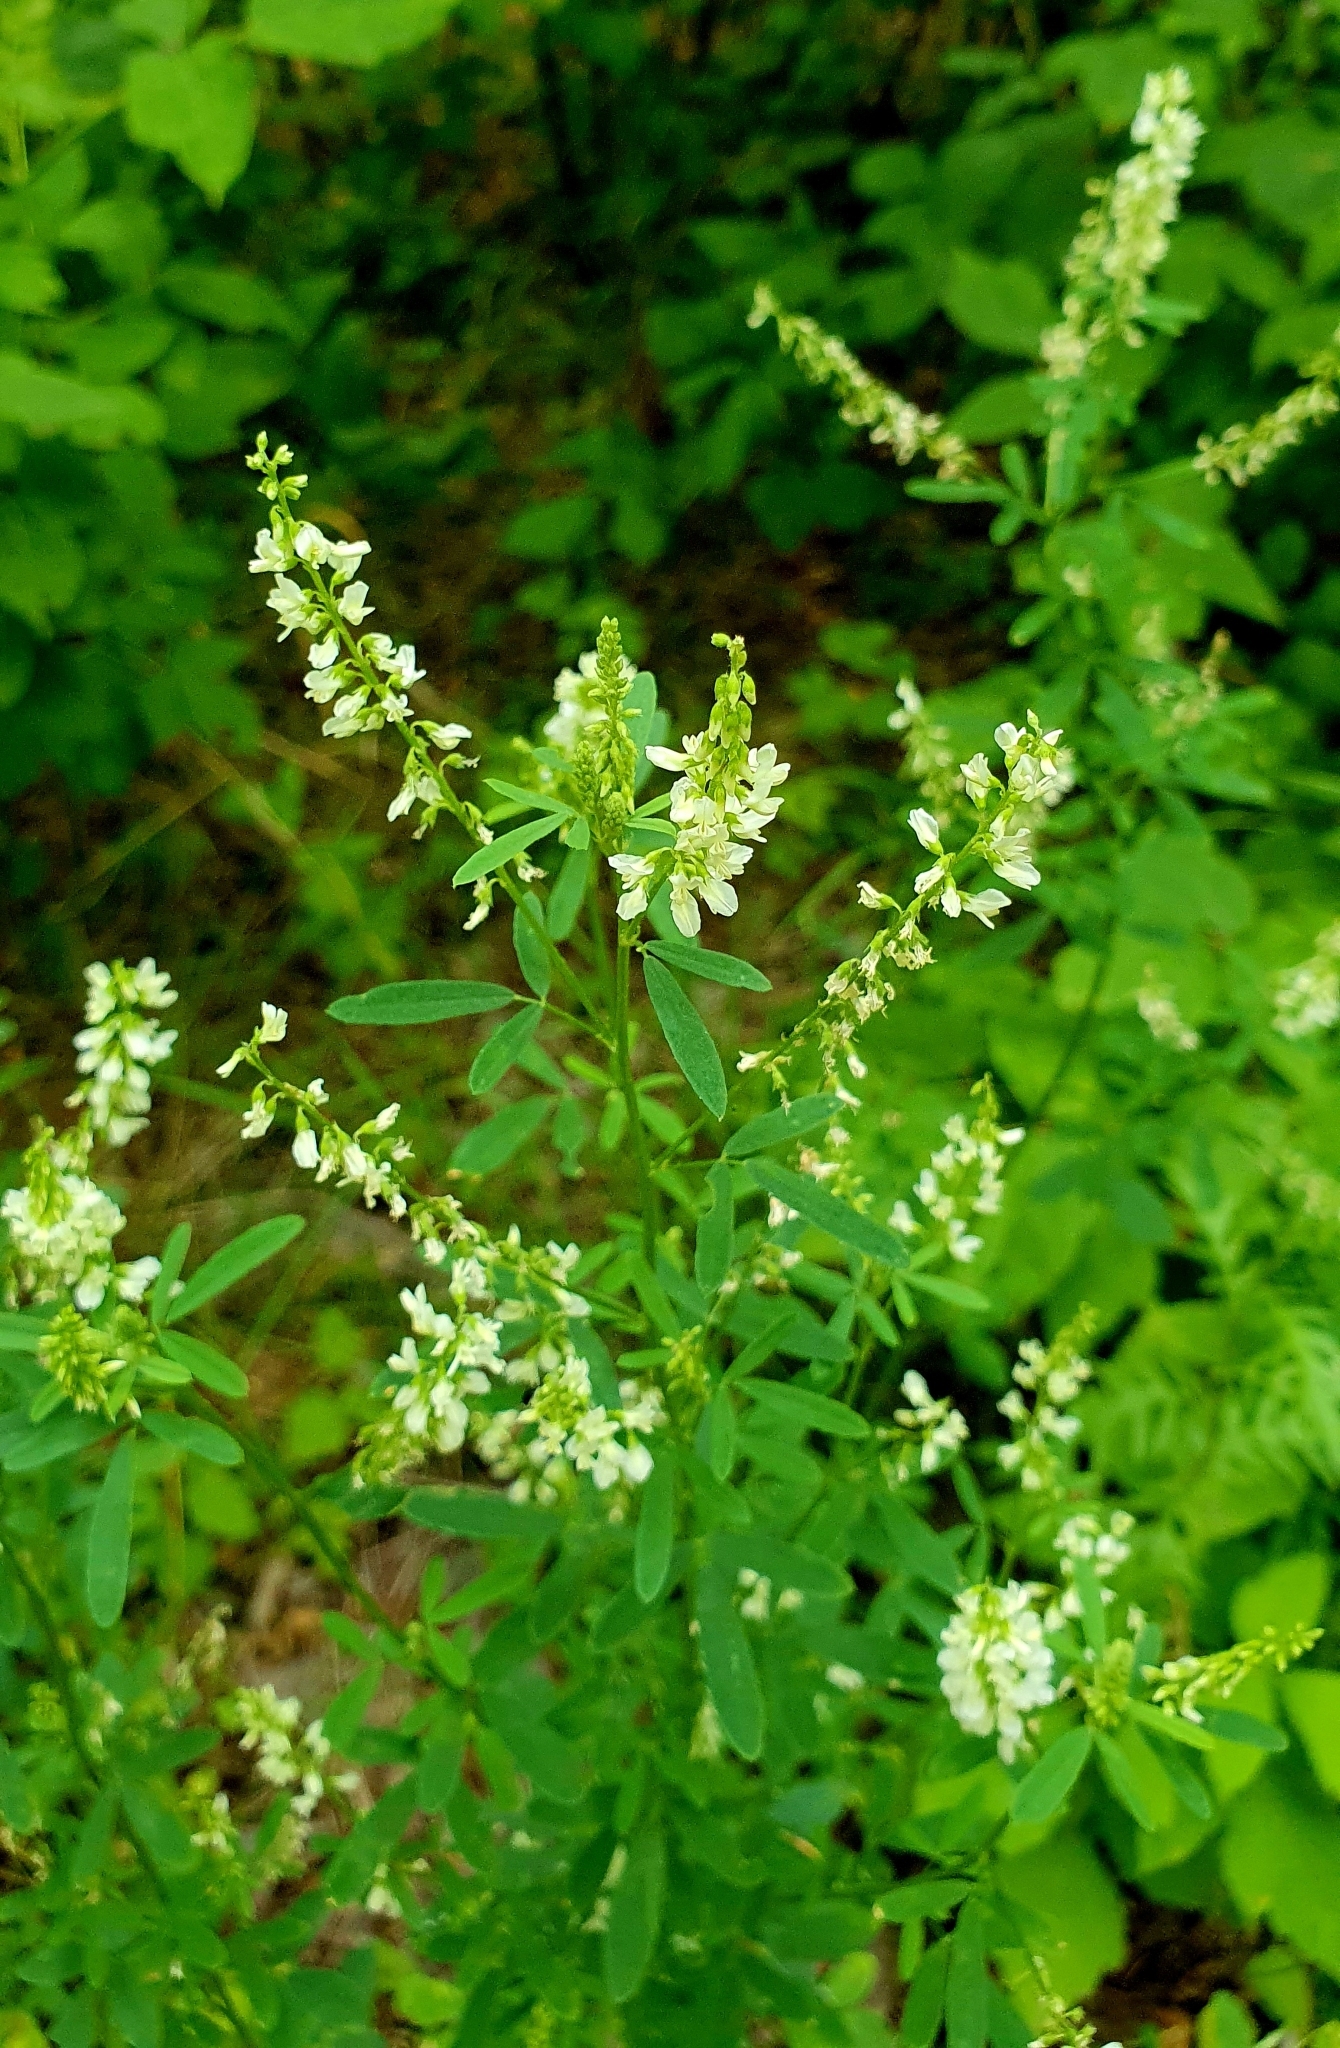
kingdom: Plantae
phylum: Tracheophyta
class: Magnoliopsida
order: Fabales
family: Fabaceae
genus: Melilotus
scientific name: Melilotus albus
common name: White melilot
